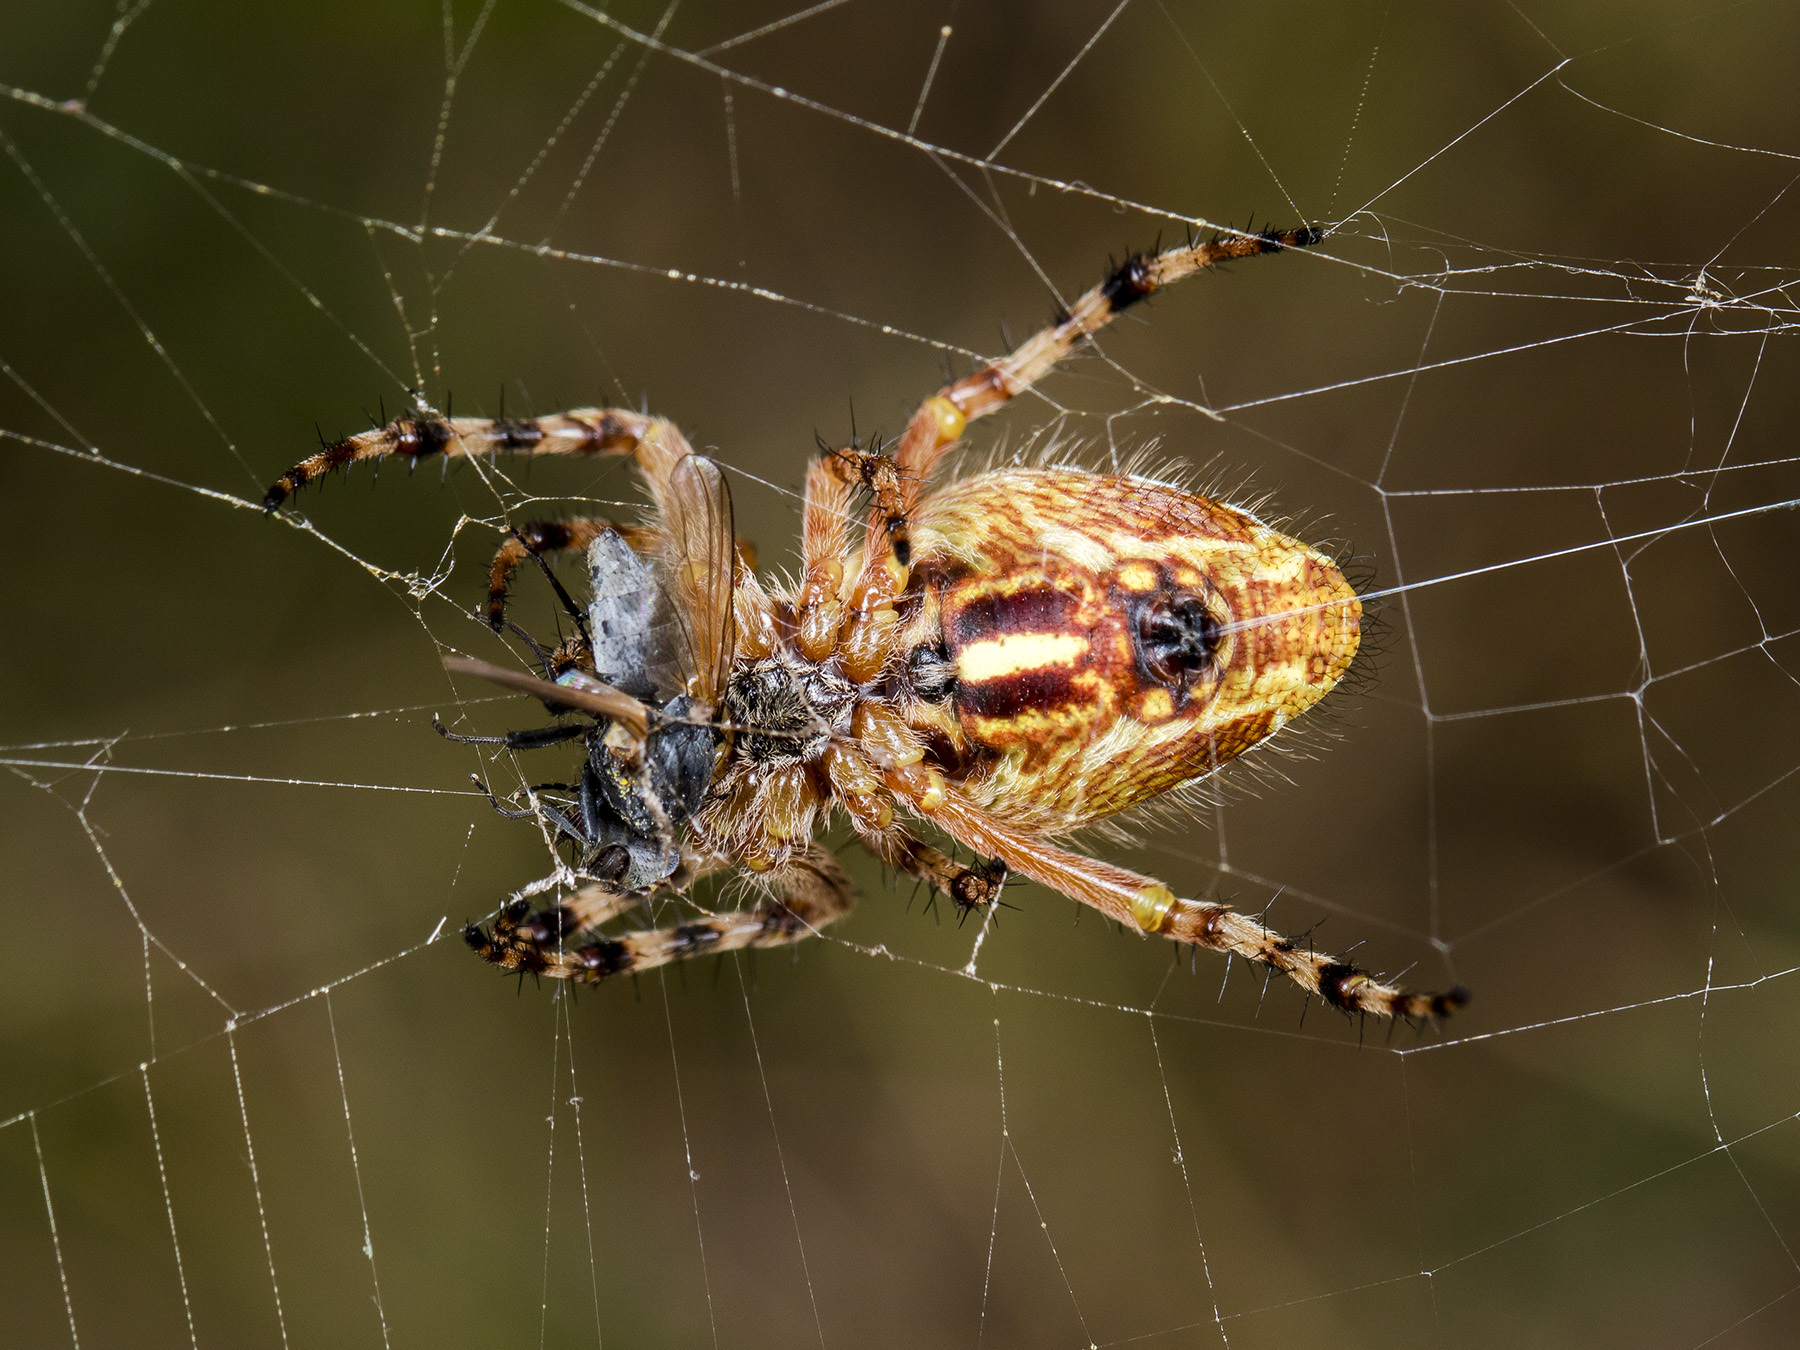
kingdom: Animalia
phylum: Arthropoda
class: Arachnida
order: Araneae
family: Araneidae
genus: Aculepeira
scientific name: Aculepeira packardi
